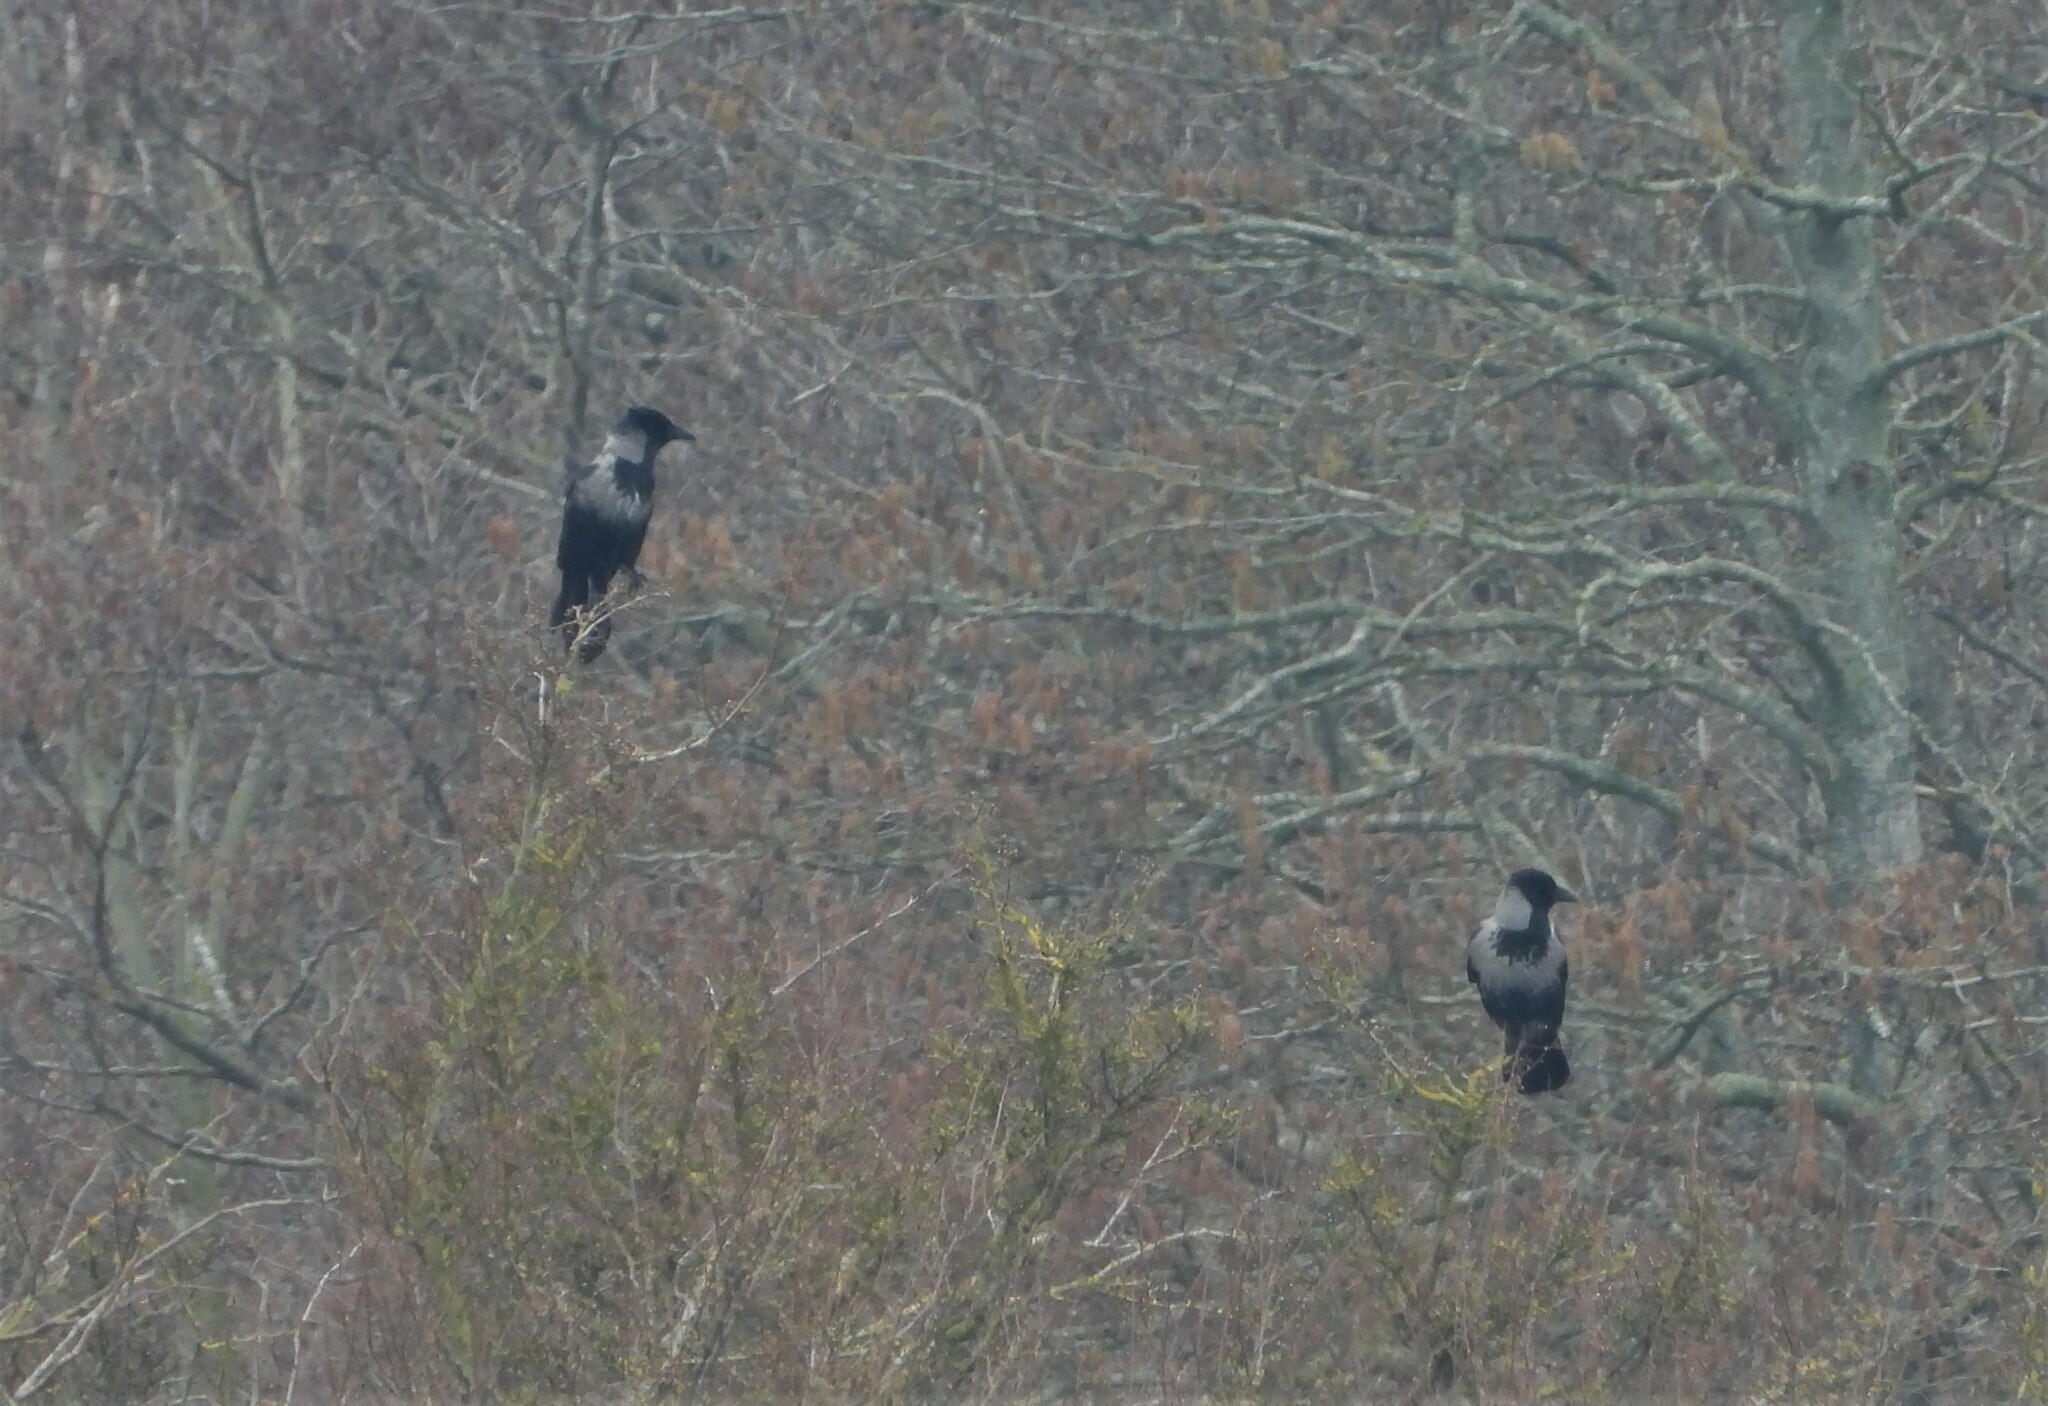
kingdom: Animalia
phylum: Chordata
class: Aves
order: Passeriformes
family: Corvidae
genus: Corvus
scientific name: Corvus cornix
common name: Hooded crow
